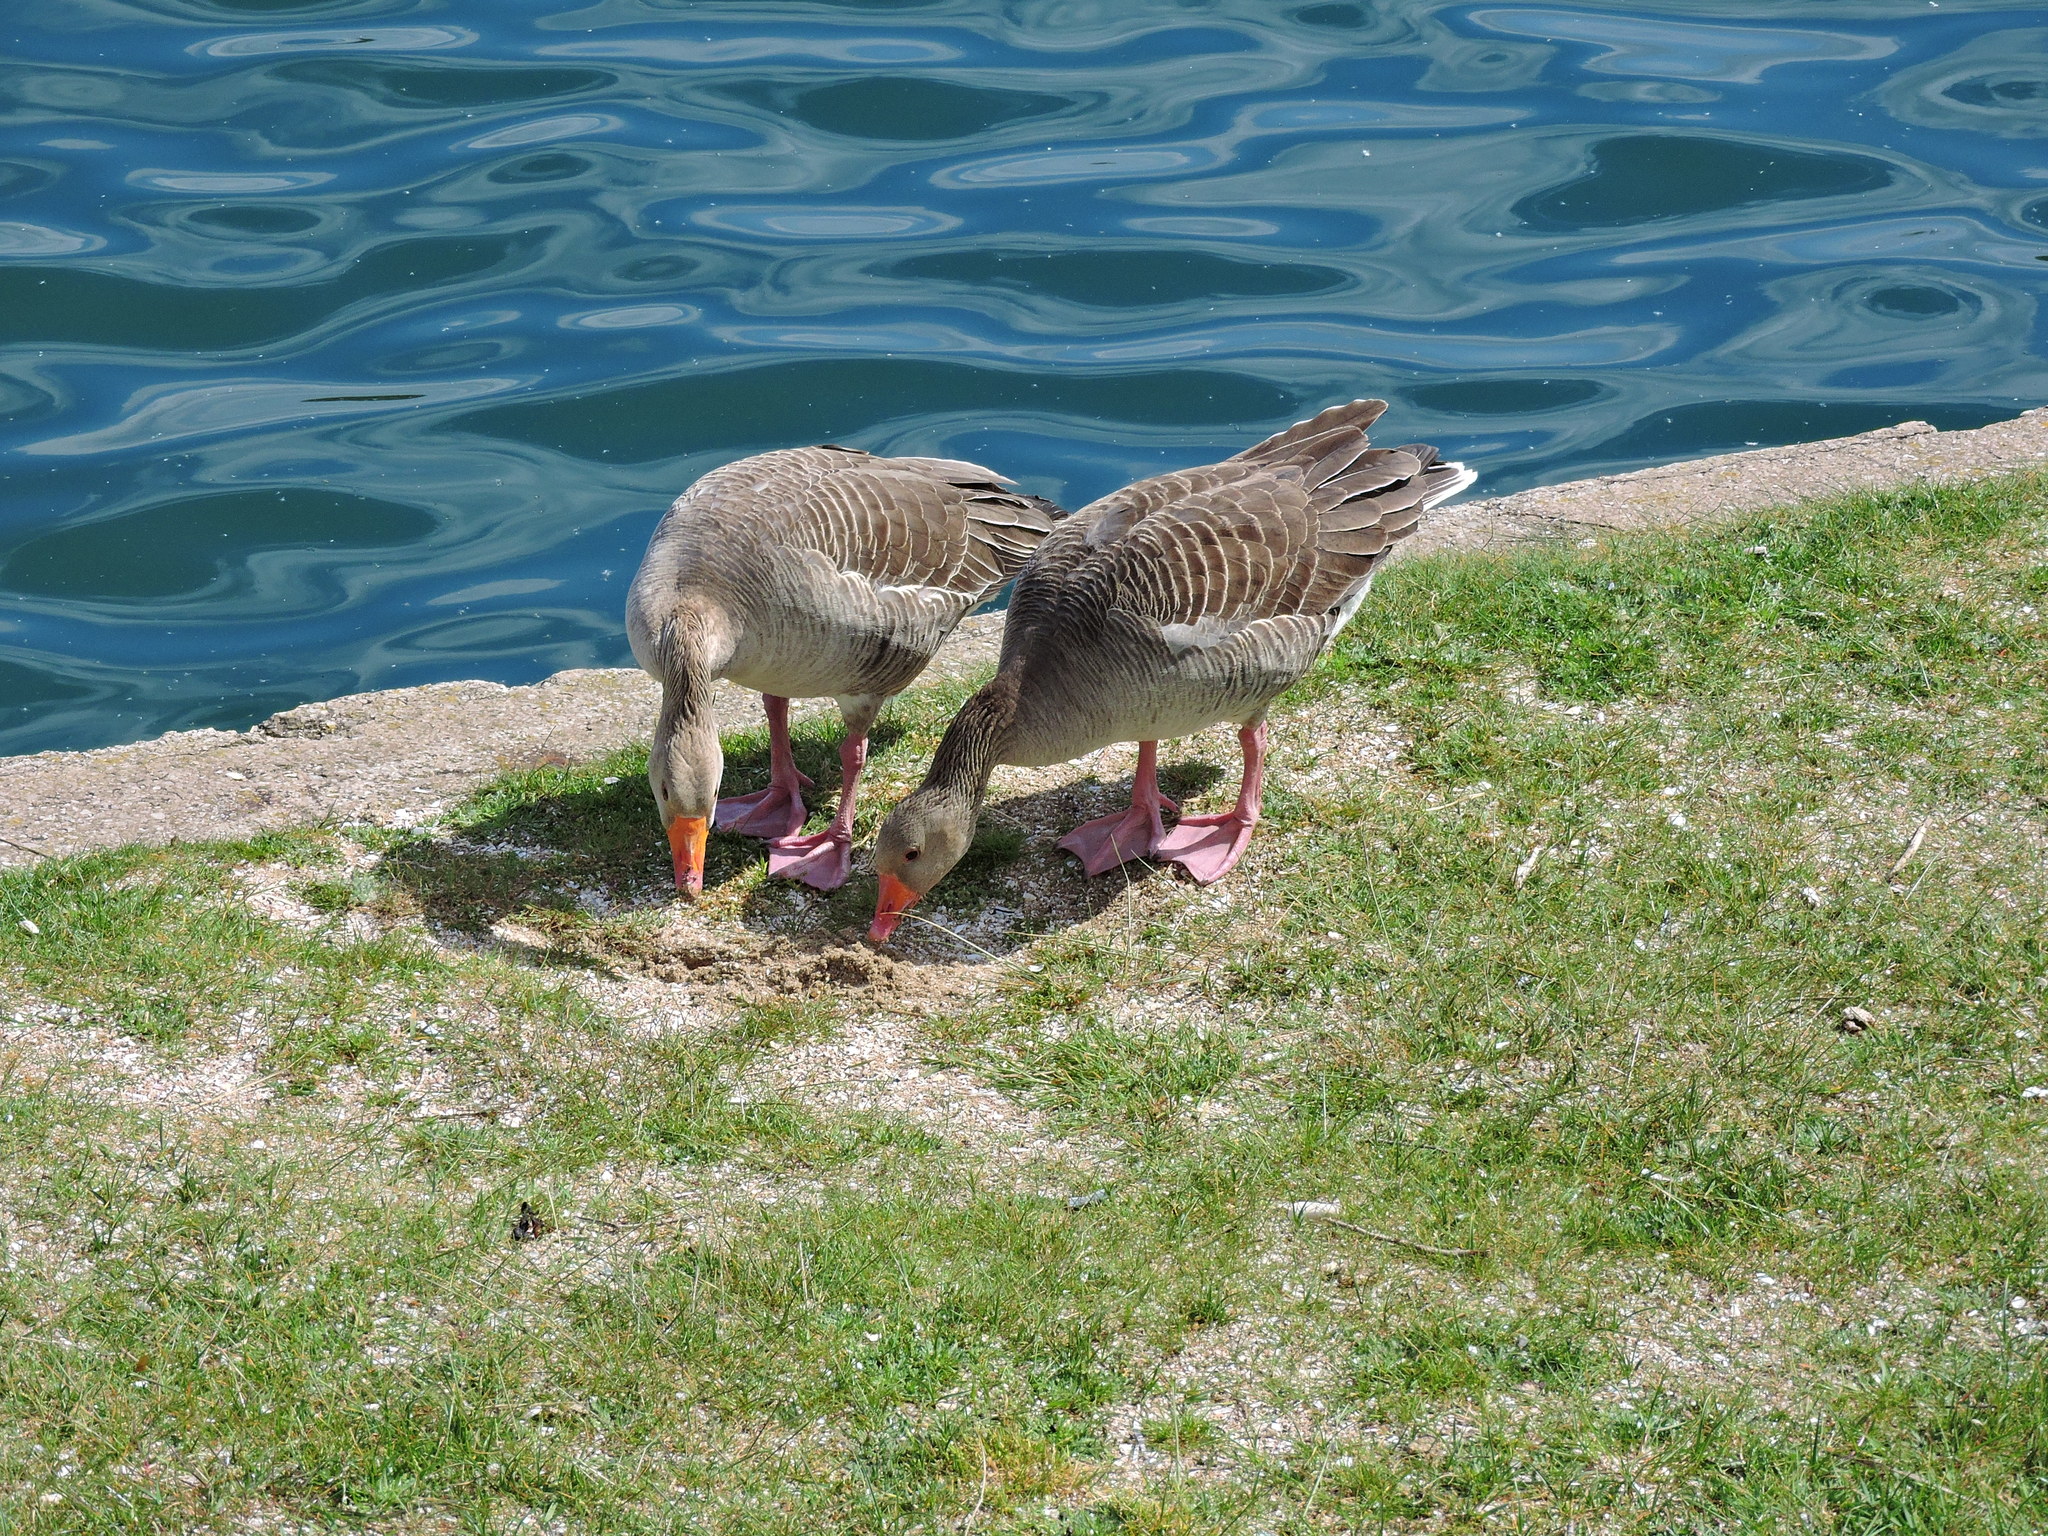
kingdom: Animalia
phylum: Chordata
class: Aves
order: Anseriformes
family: Anatidae
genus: Anser
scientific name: Anser anser
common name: Greylag goose
